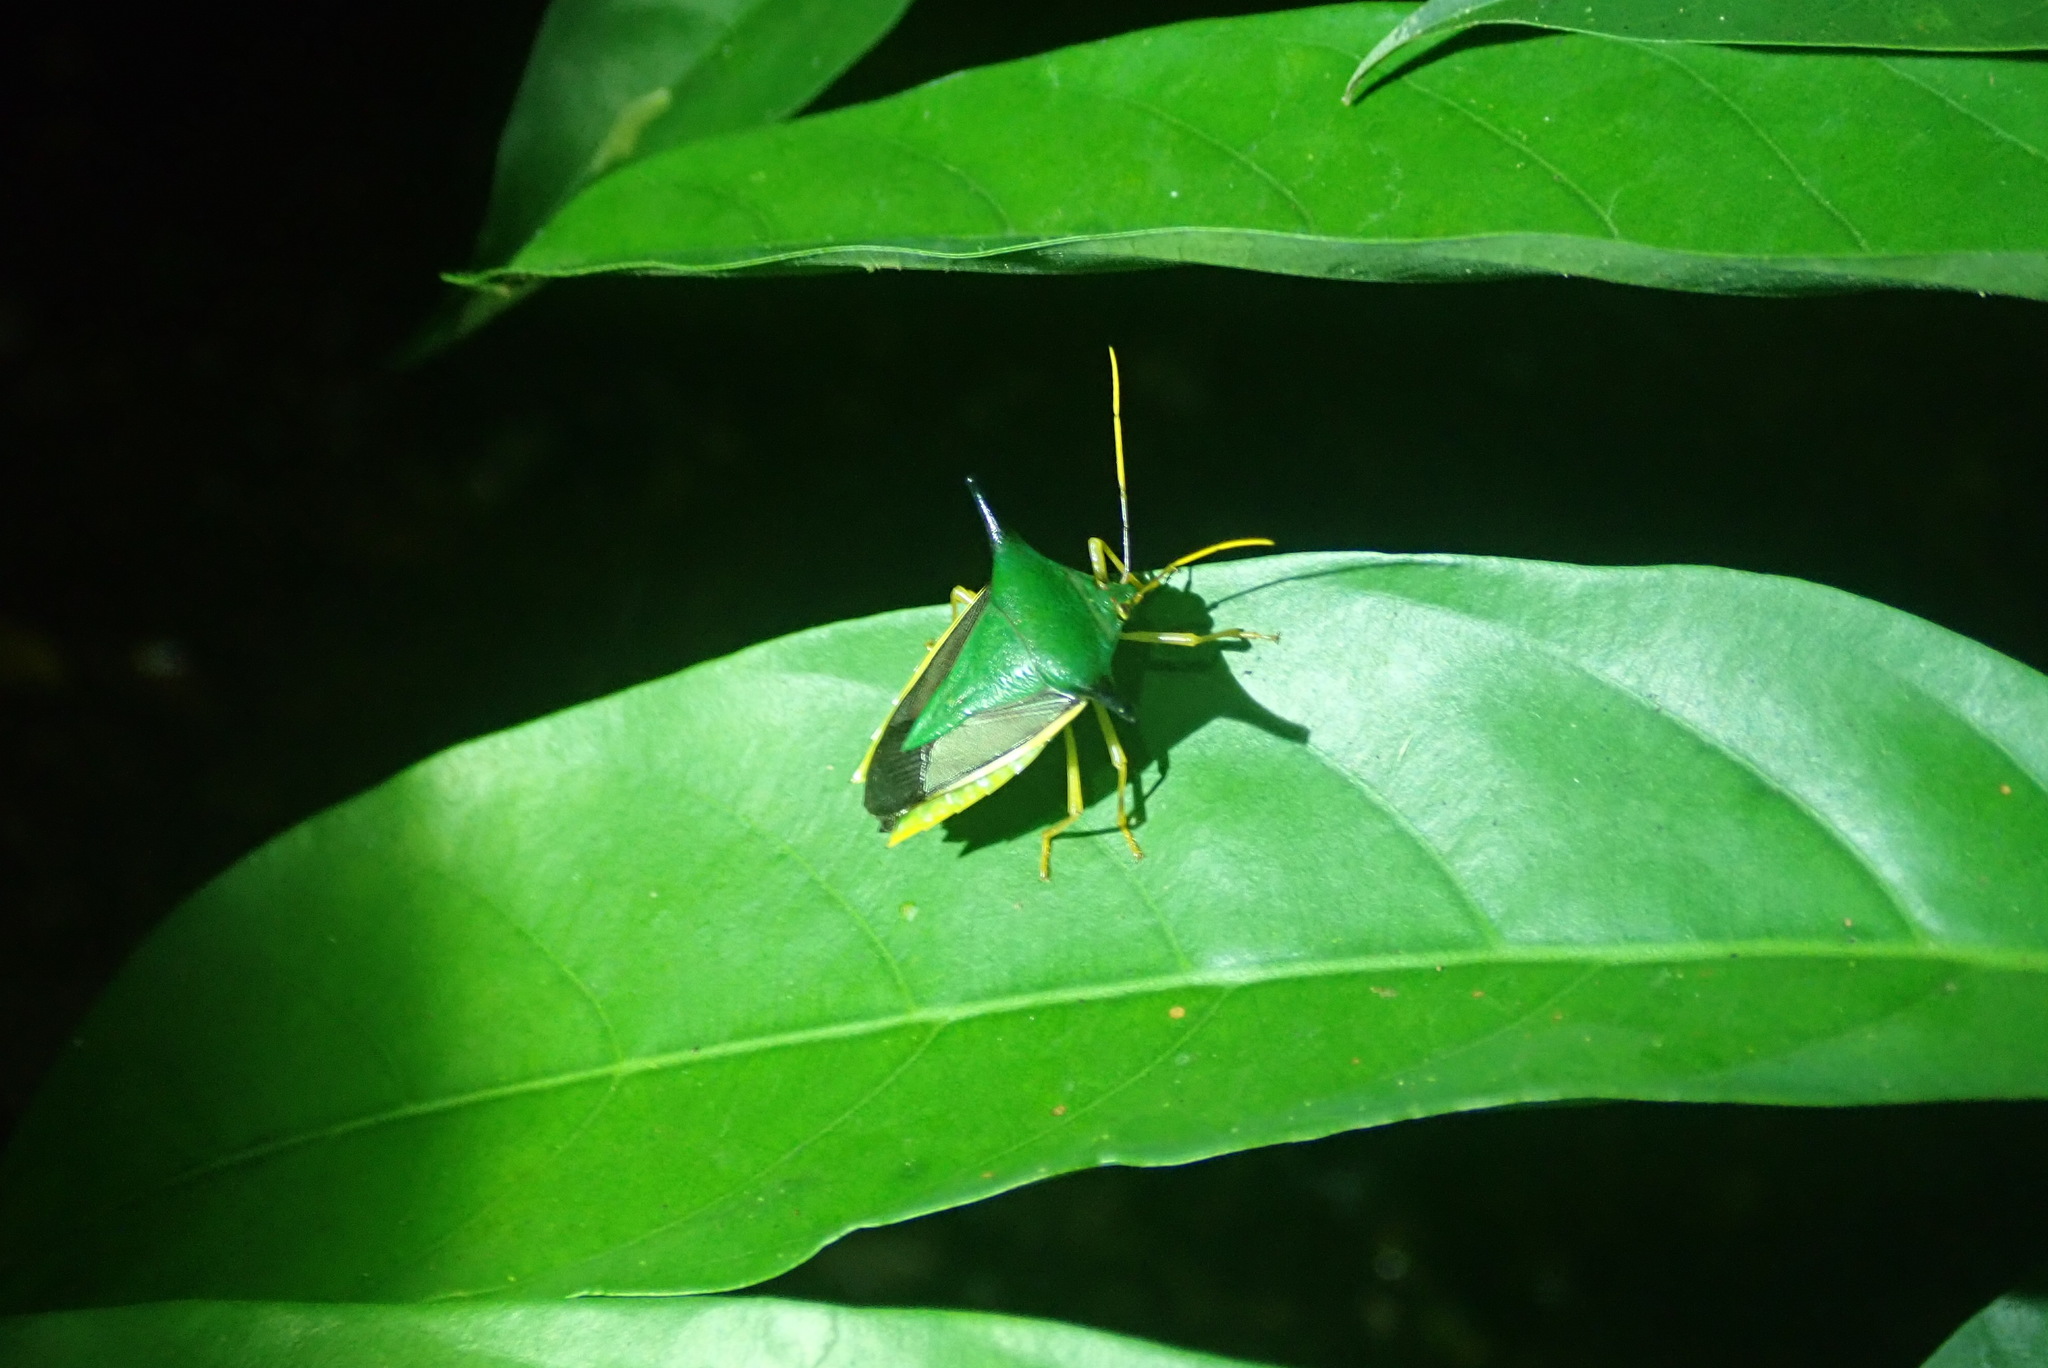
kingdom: Animalia
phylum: Arthropoda
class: Insecta
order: Hemiptera
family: Pentatomidae
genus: Edessa
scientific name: Edessa
